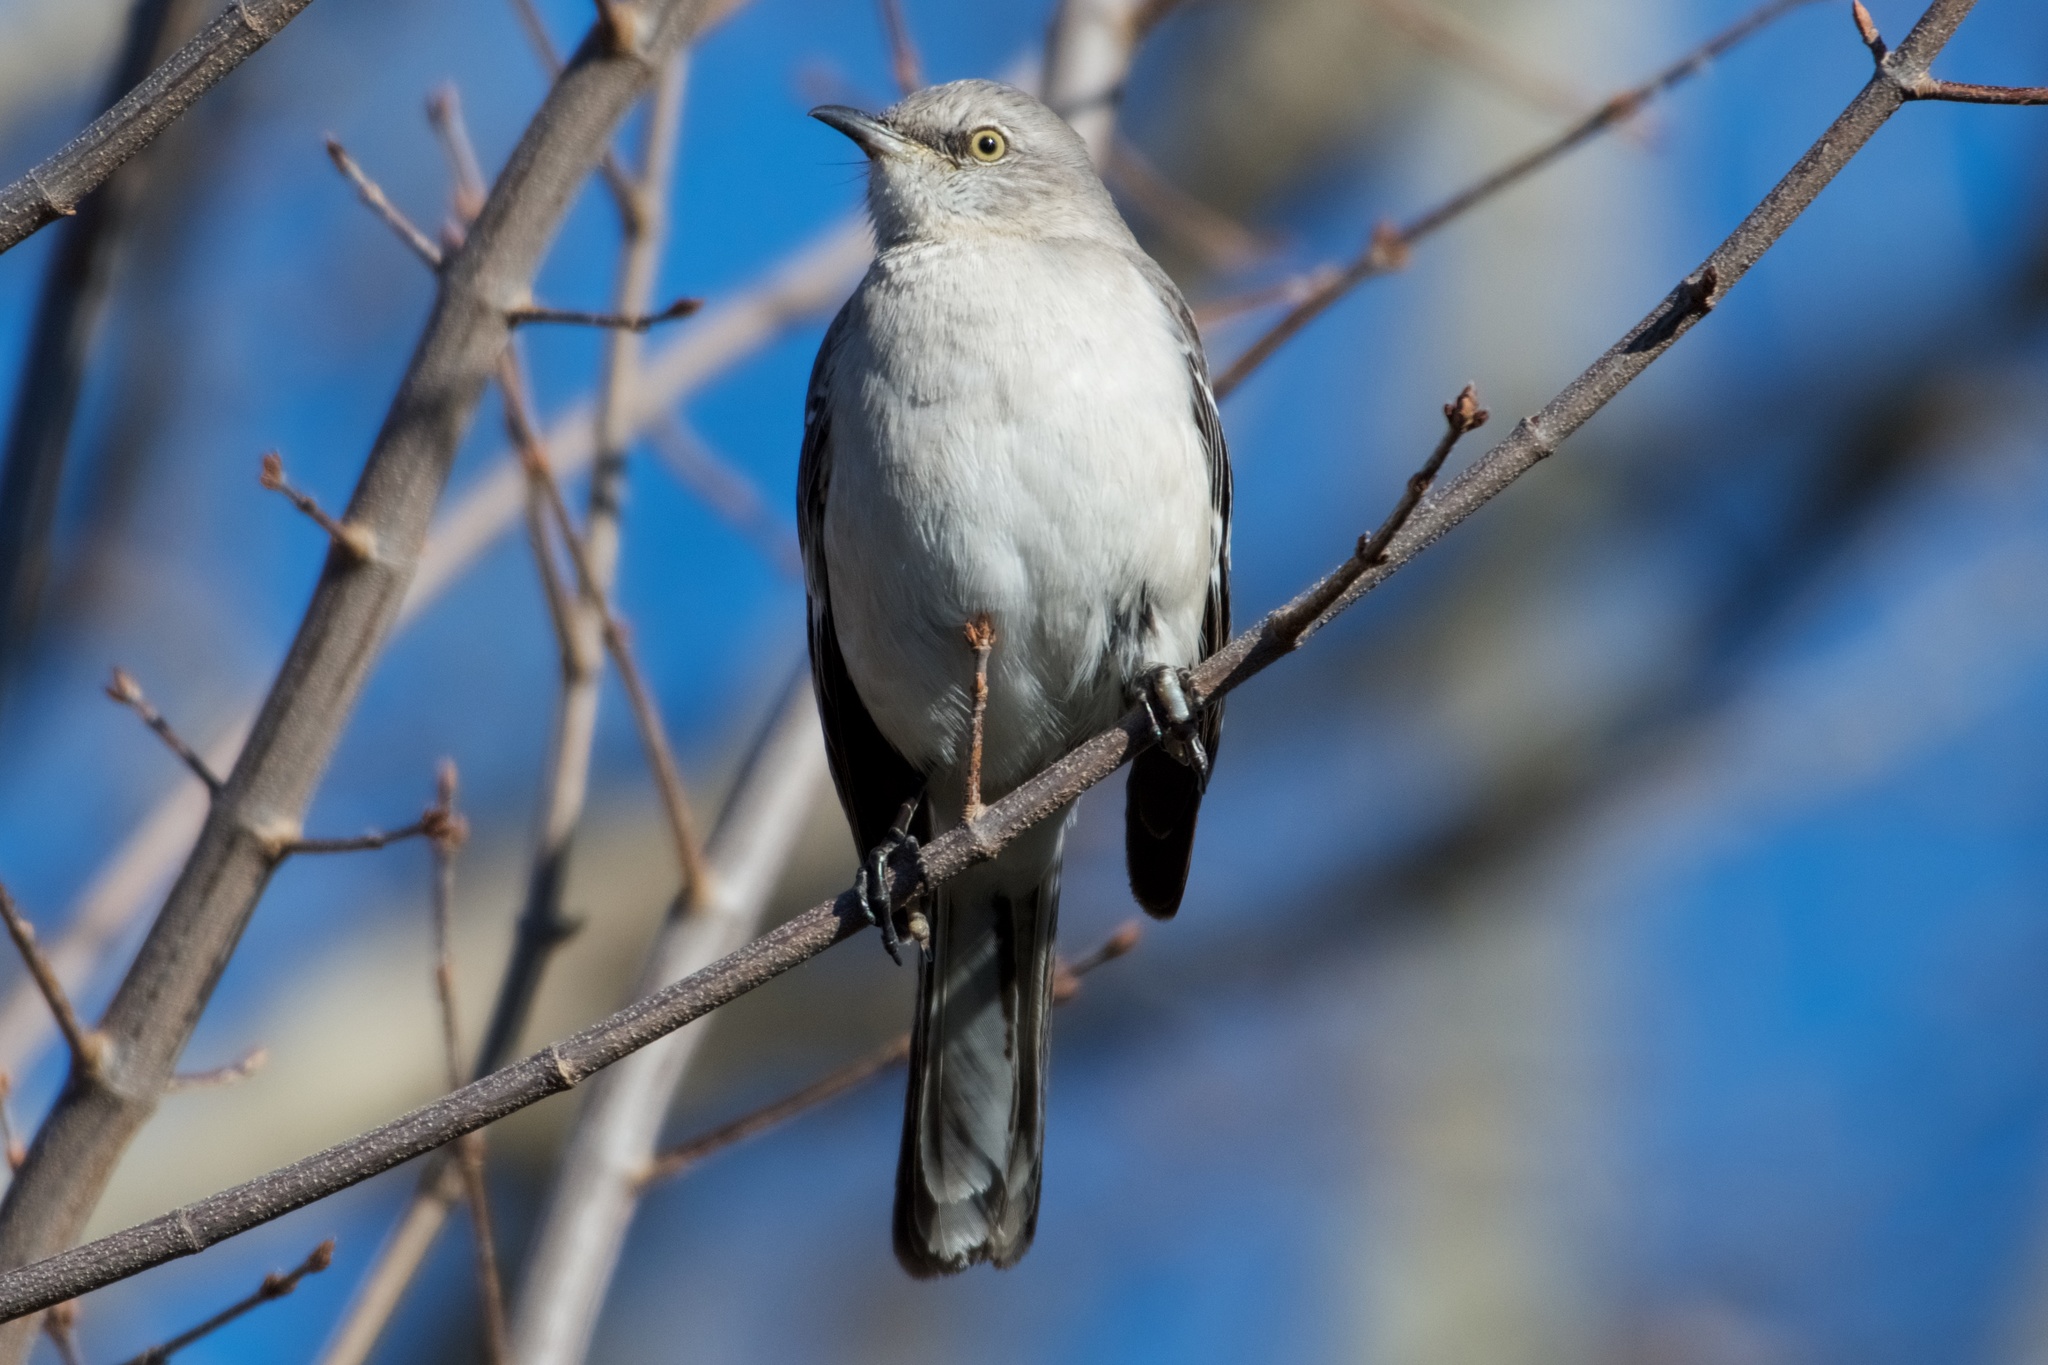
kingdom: Animalia
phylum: Chordata
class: Aves
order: Passeriformes
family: Mimidae
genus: Mimus
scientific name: Mimus polyglottos
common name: Northern mockingbird
